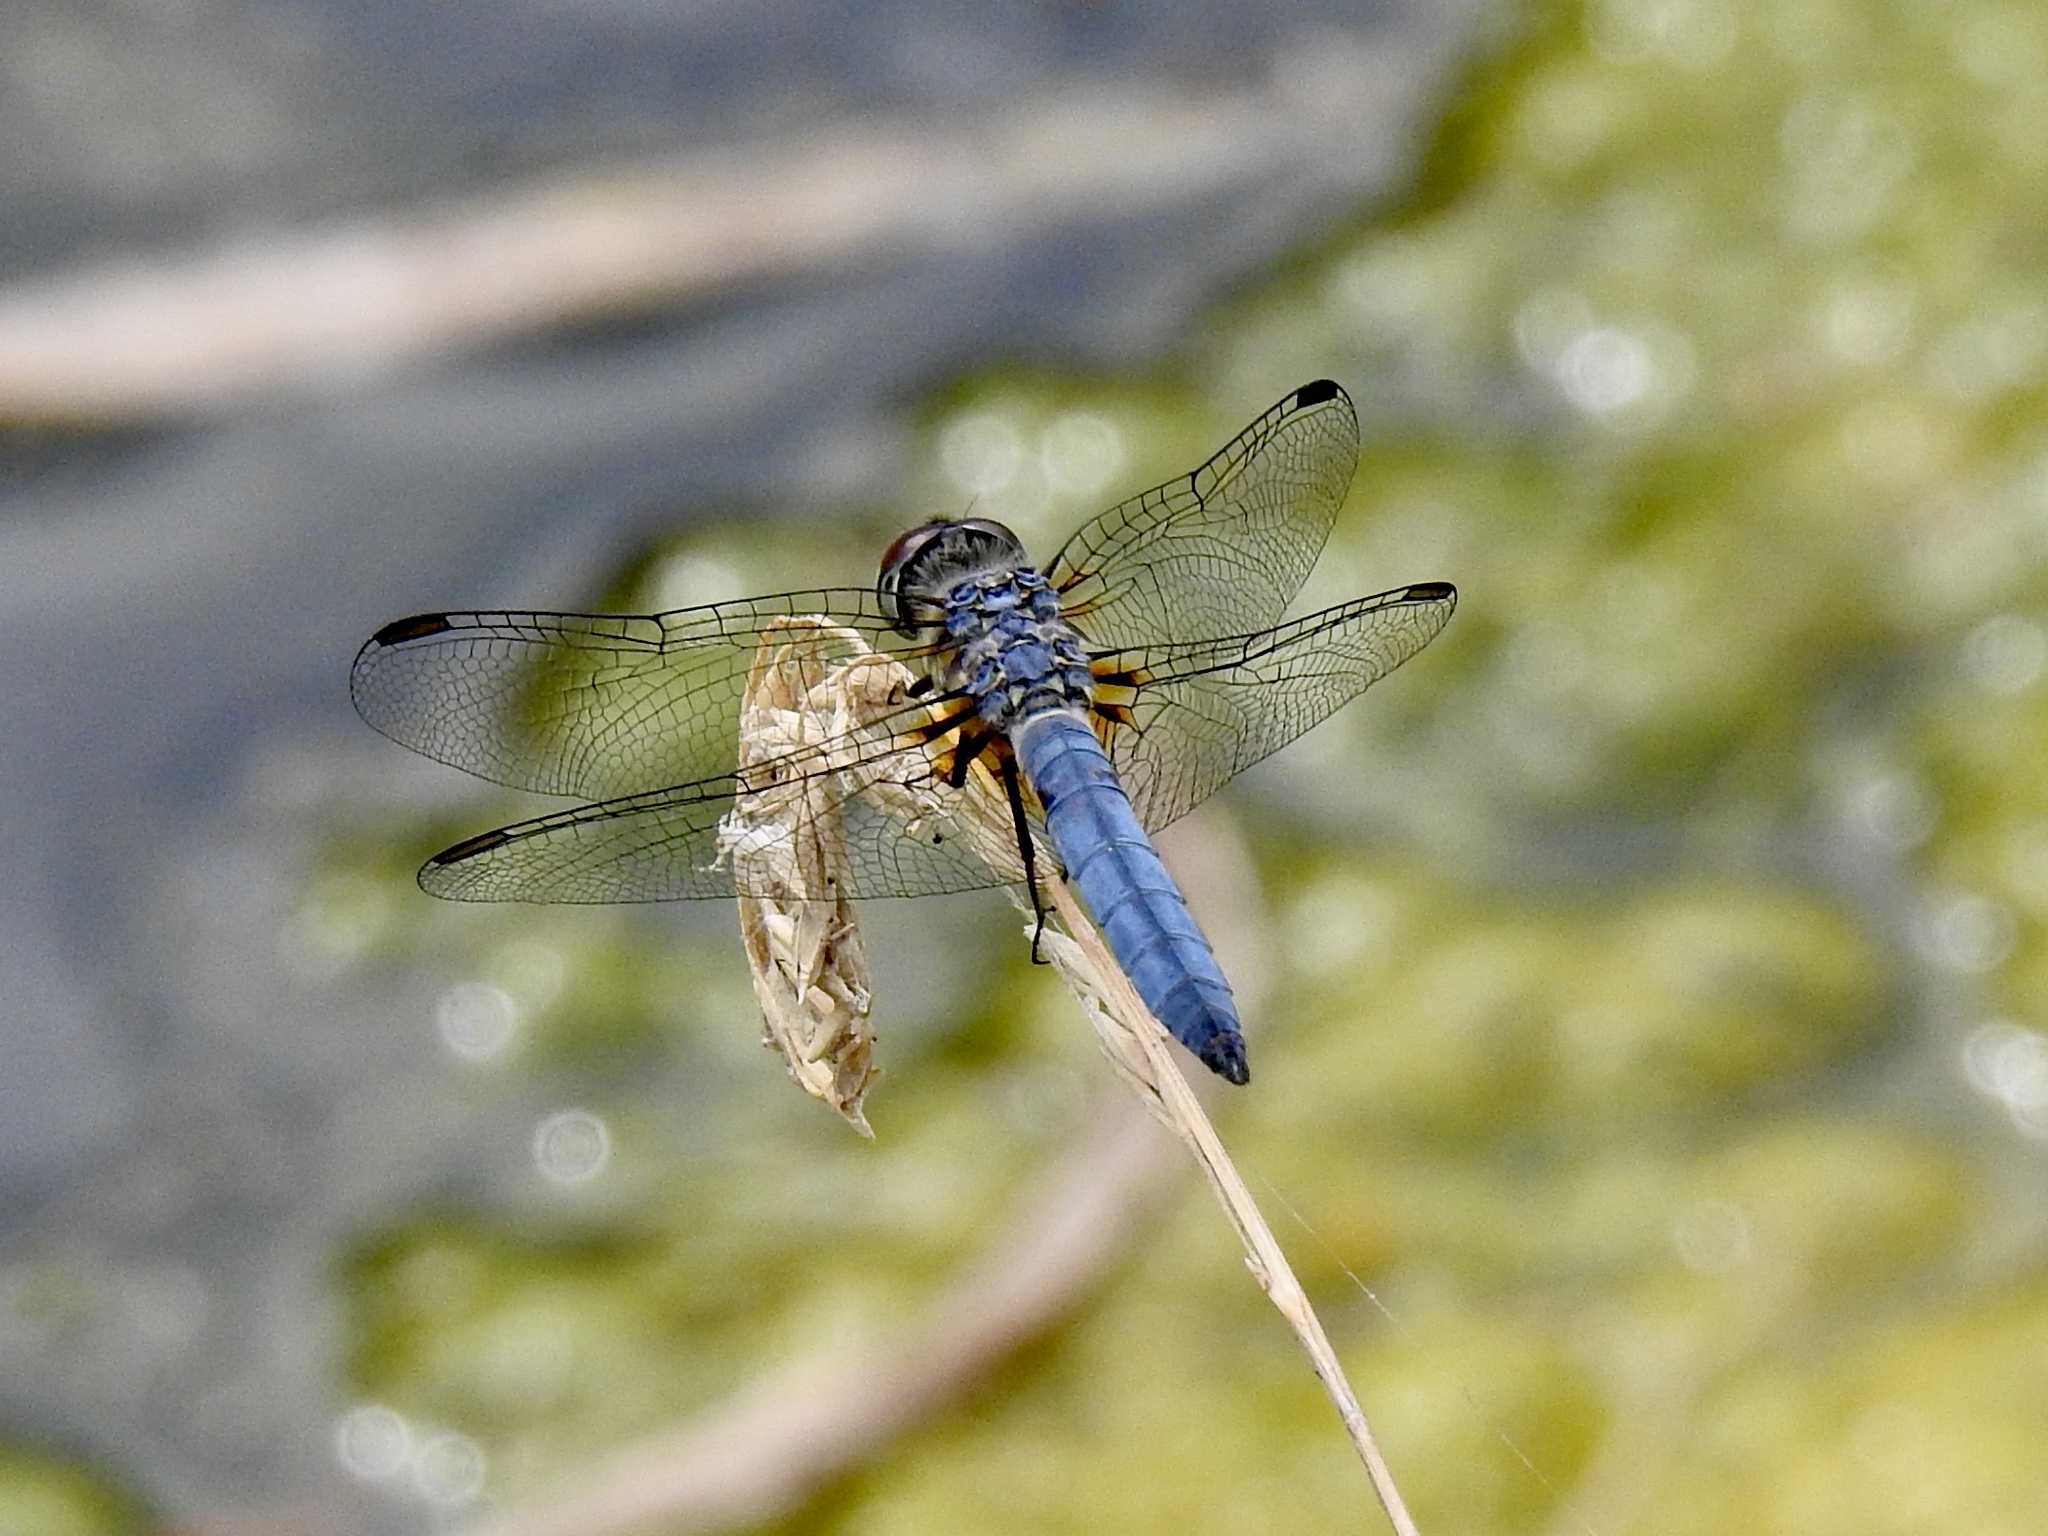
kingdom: Animalia
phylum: Arthropoda
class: Insecta
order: Odonata
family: Libellulidae
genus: Pachydiplax
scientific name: Pachydiplax longipennis
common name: Blue dasher
